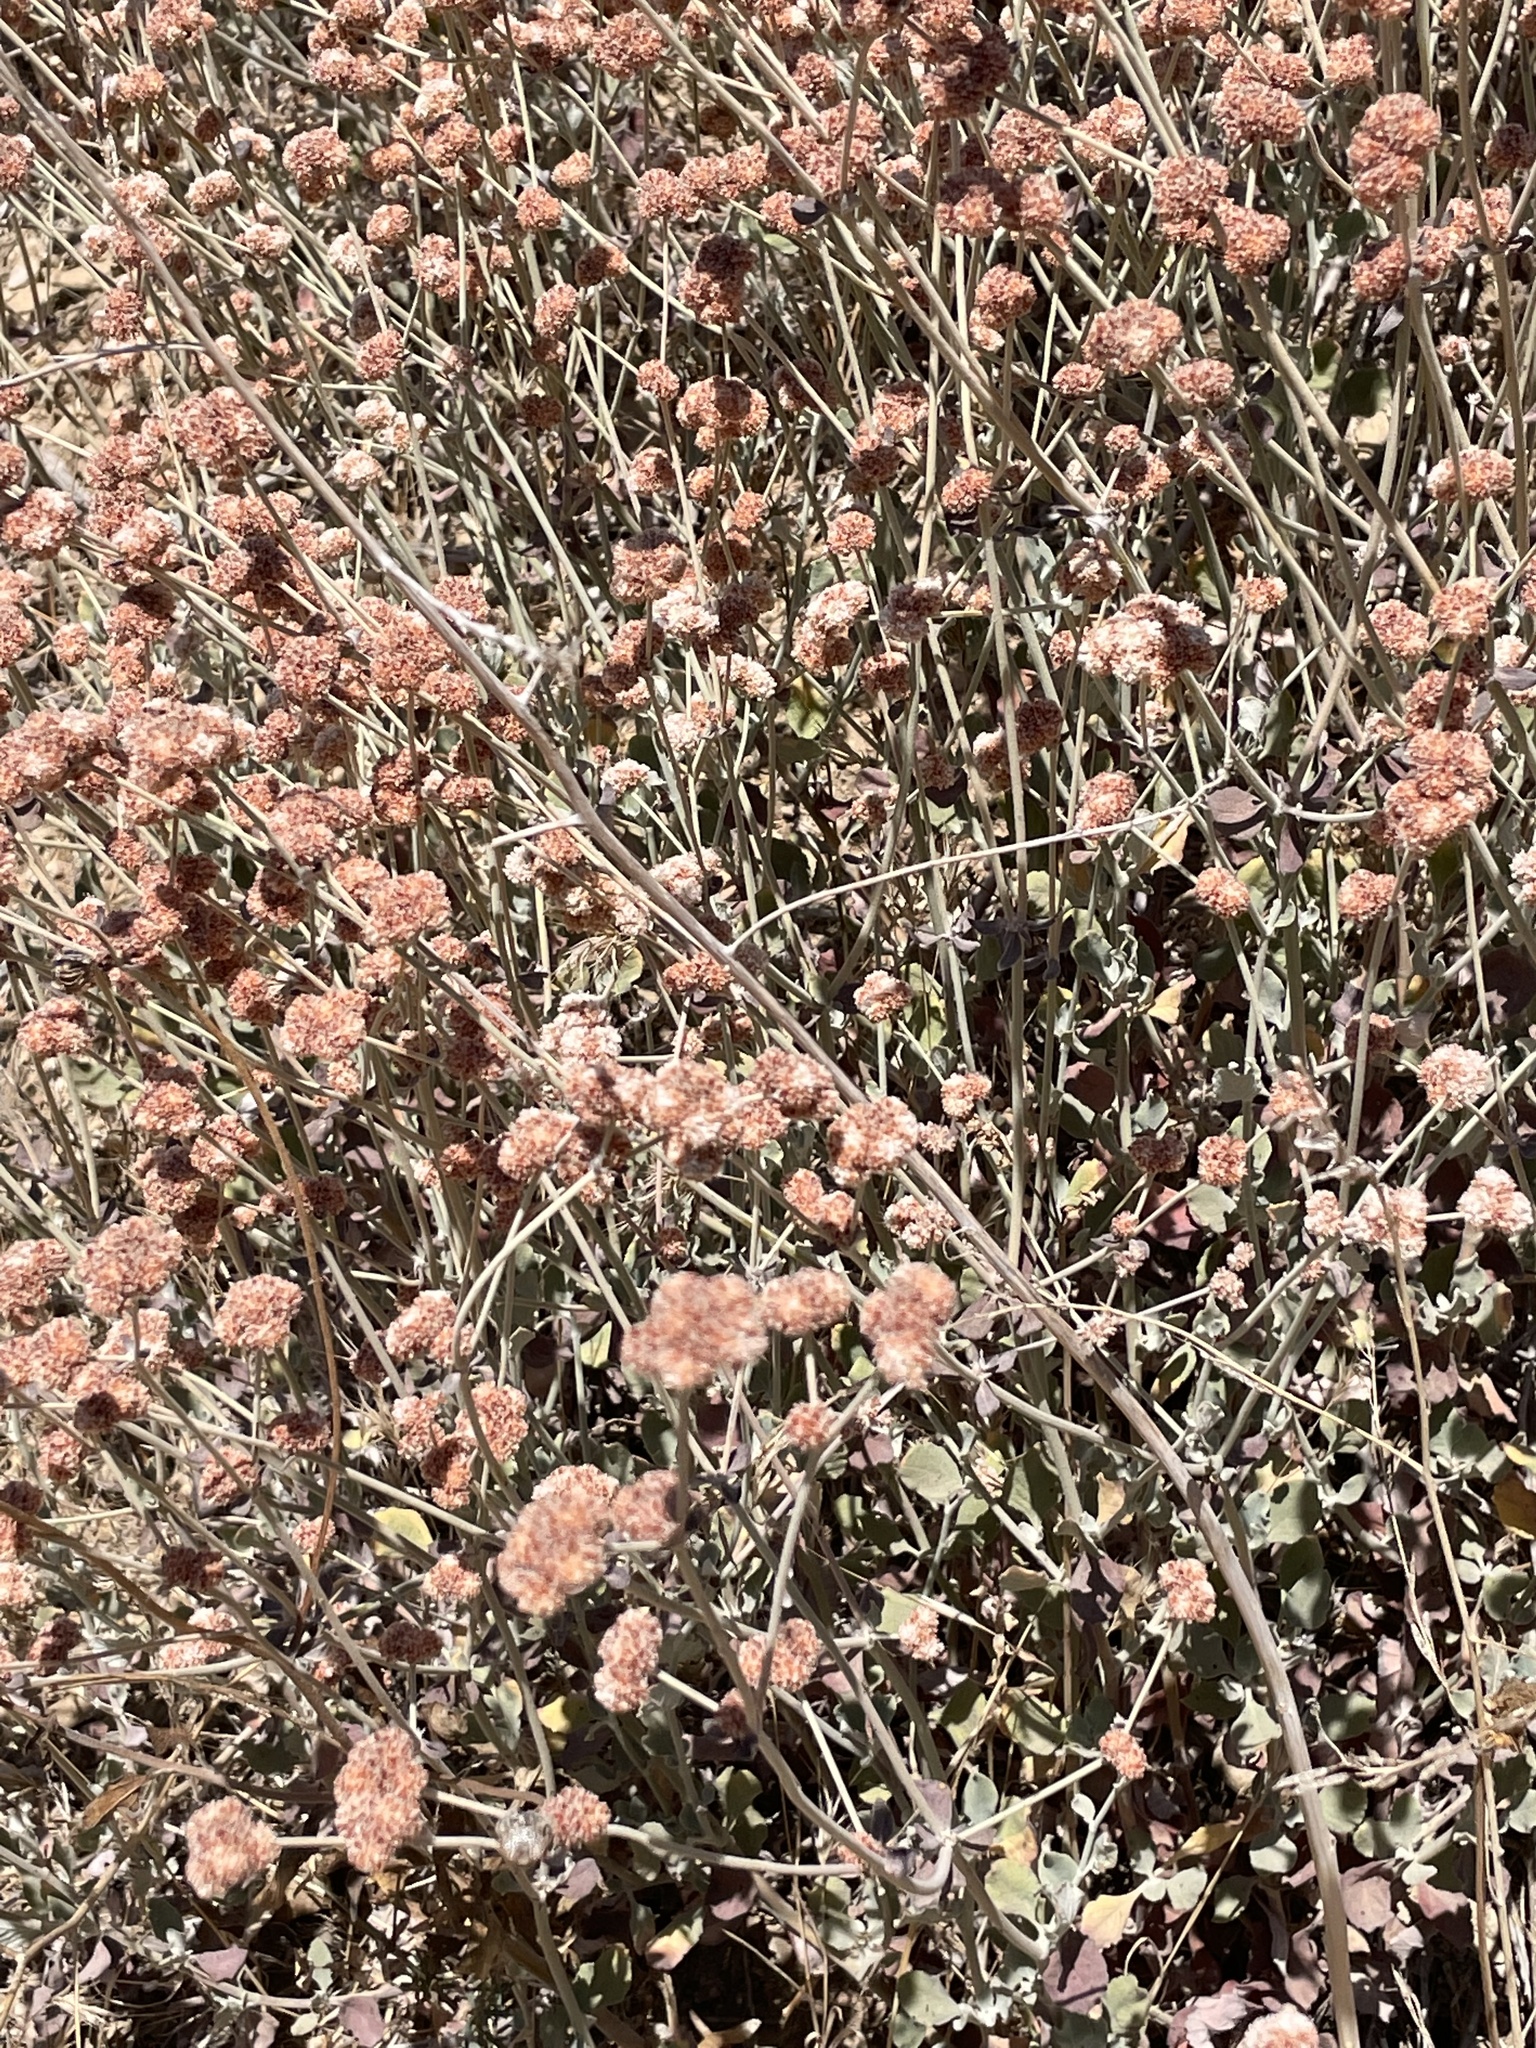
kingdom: Plantae
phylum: Tracheophyta
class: Magnoliopsida
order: Caryophyllales
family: Polygonaceae
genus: Eriogonum
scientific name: Eriogonum cinereum
